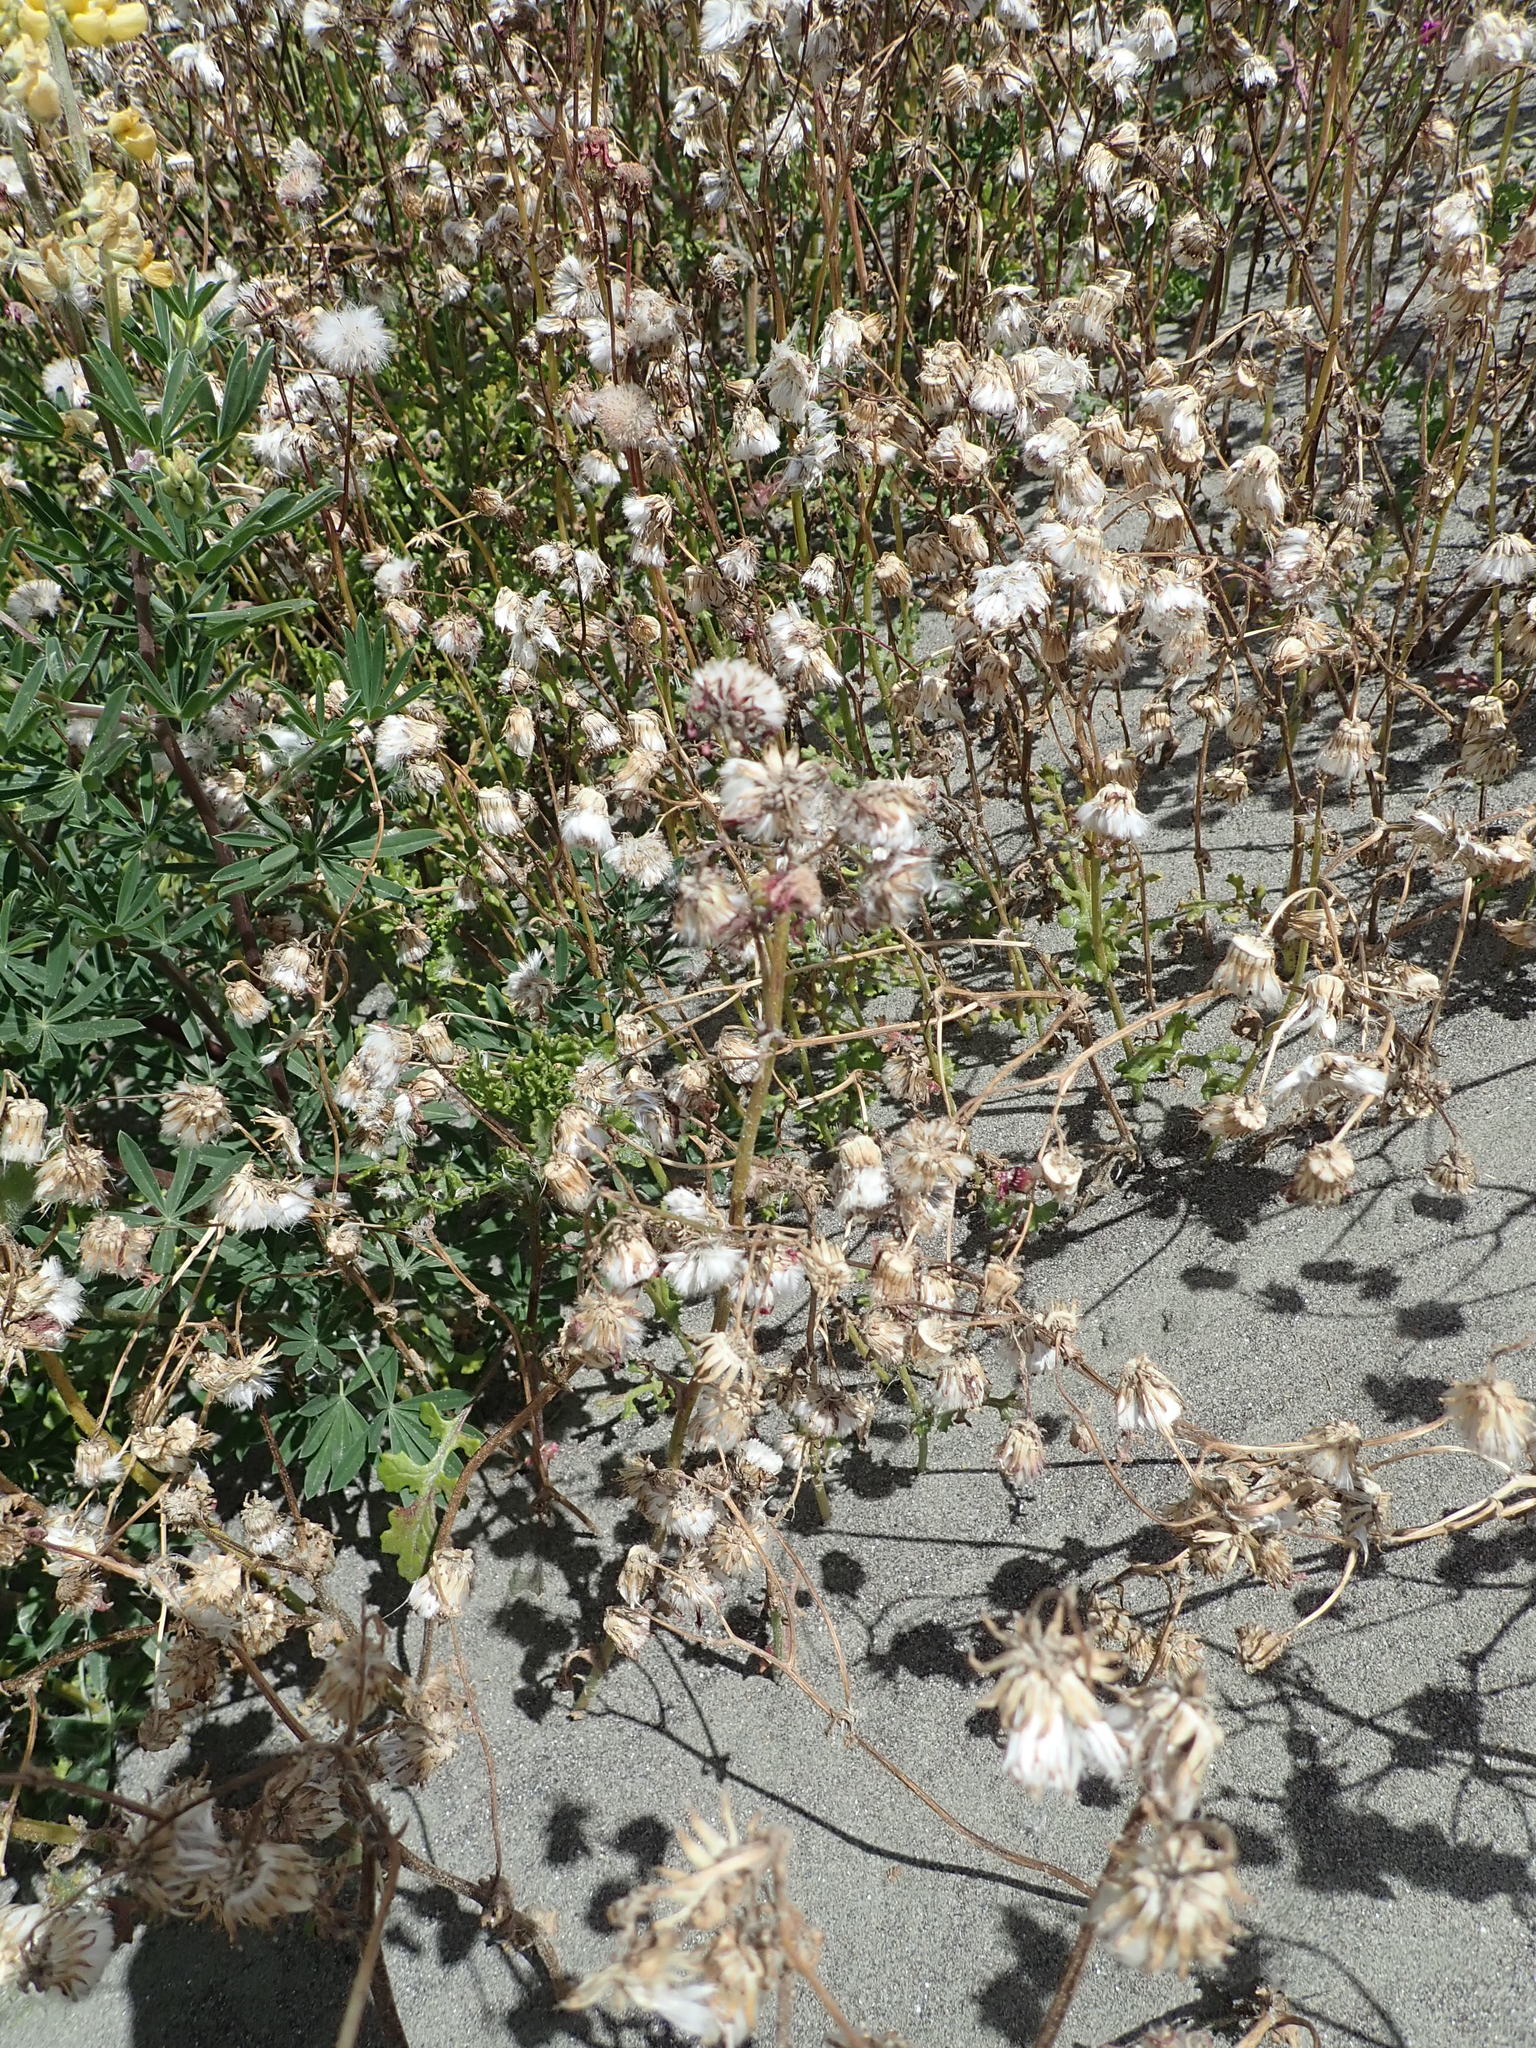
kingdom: Plantae
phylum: Tracheophyta
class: Magnoliopsida
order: Asterales
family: Asteraceae
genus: Senecio
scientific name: Senecio elegans
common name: Purple groundsel
